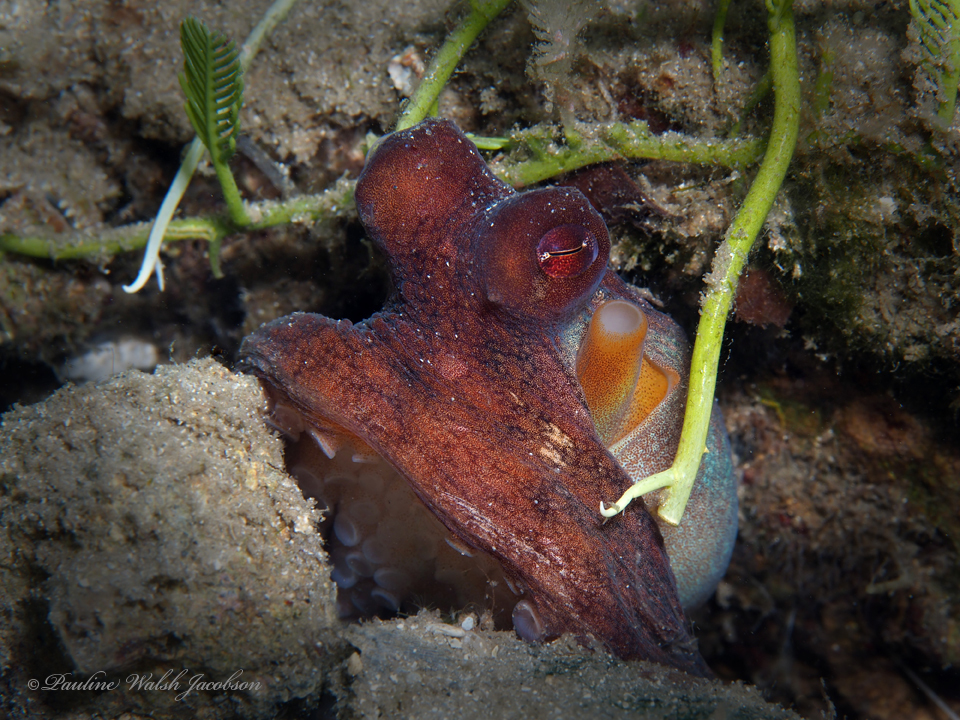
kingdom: Animalia
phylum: Mollusca
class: Cephalopoda
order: Octopoda
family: Octopodidae
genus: Octopus
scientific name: Octopus americanus
